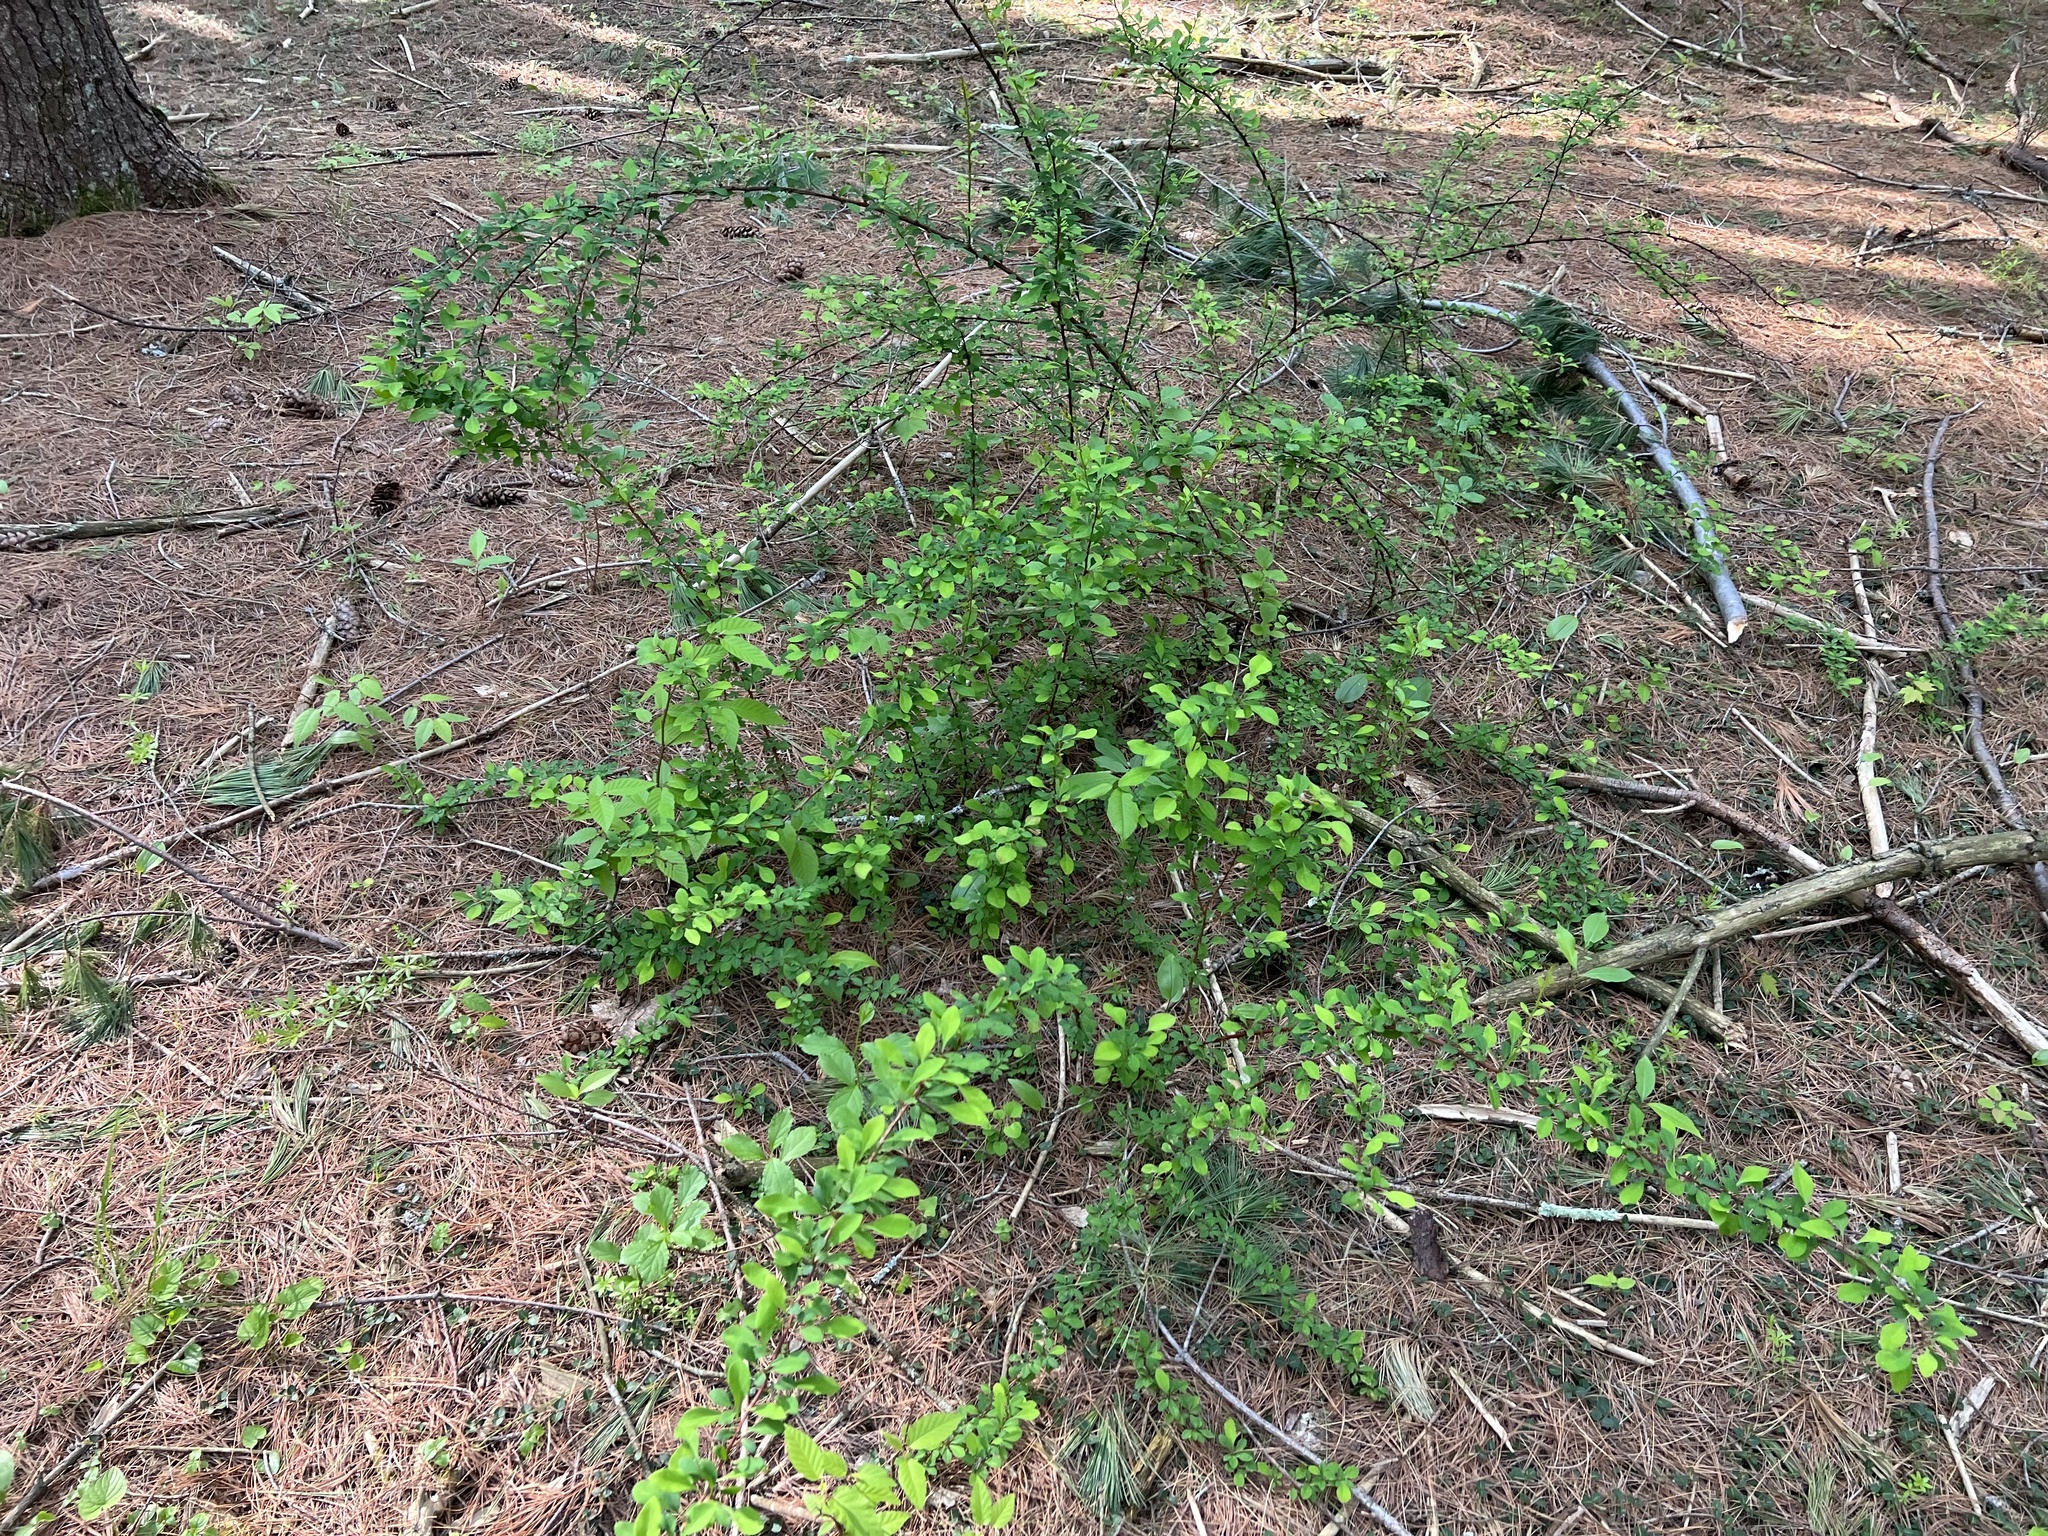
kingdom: Plantae
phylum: Tracheophyta
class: Magnoliopsida
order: Ranunculales
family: Berberidaceae
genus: Berberis
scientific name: Berberis thunbergii
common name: Japanese barberry
